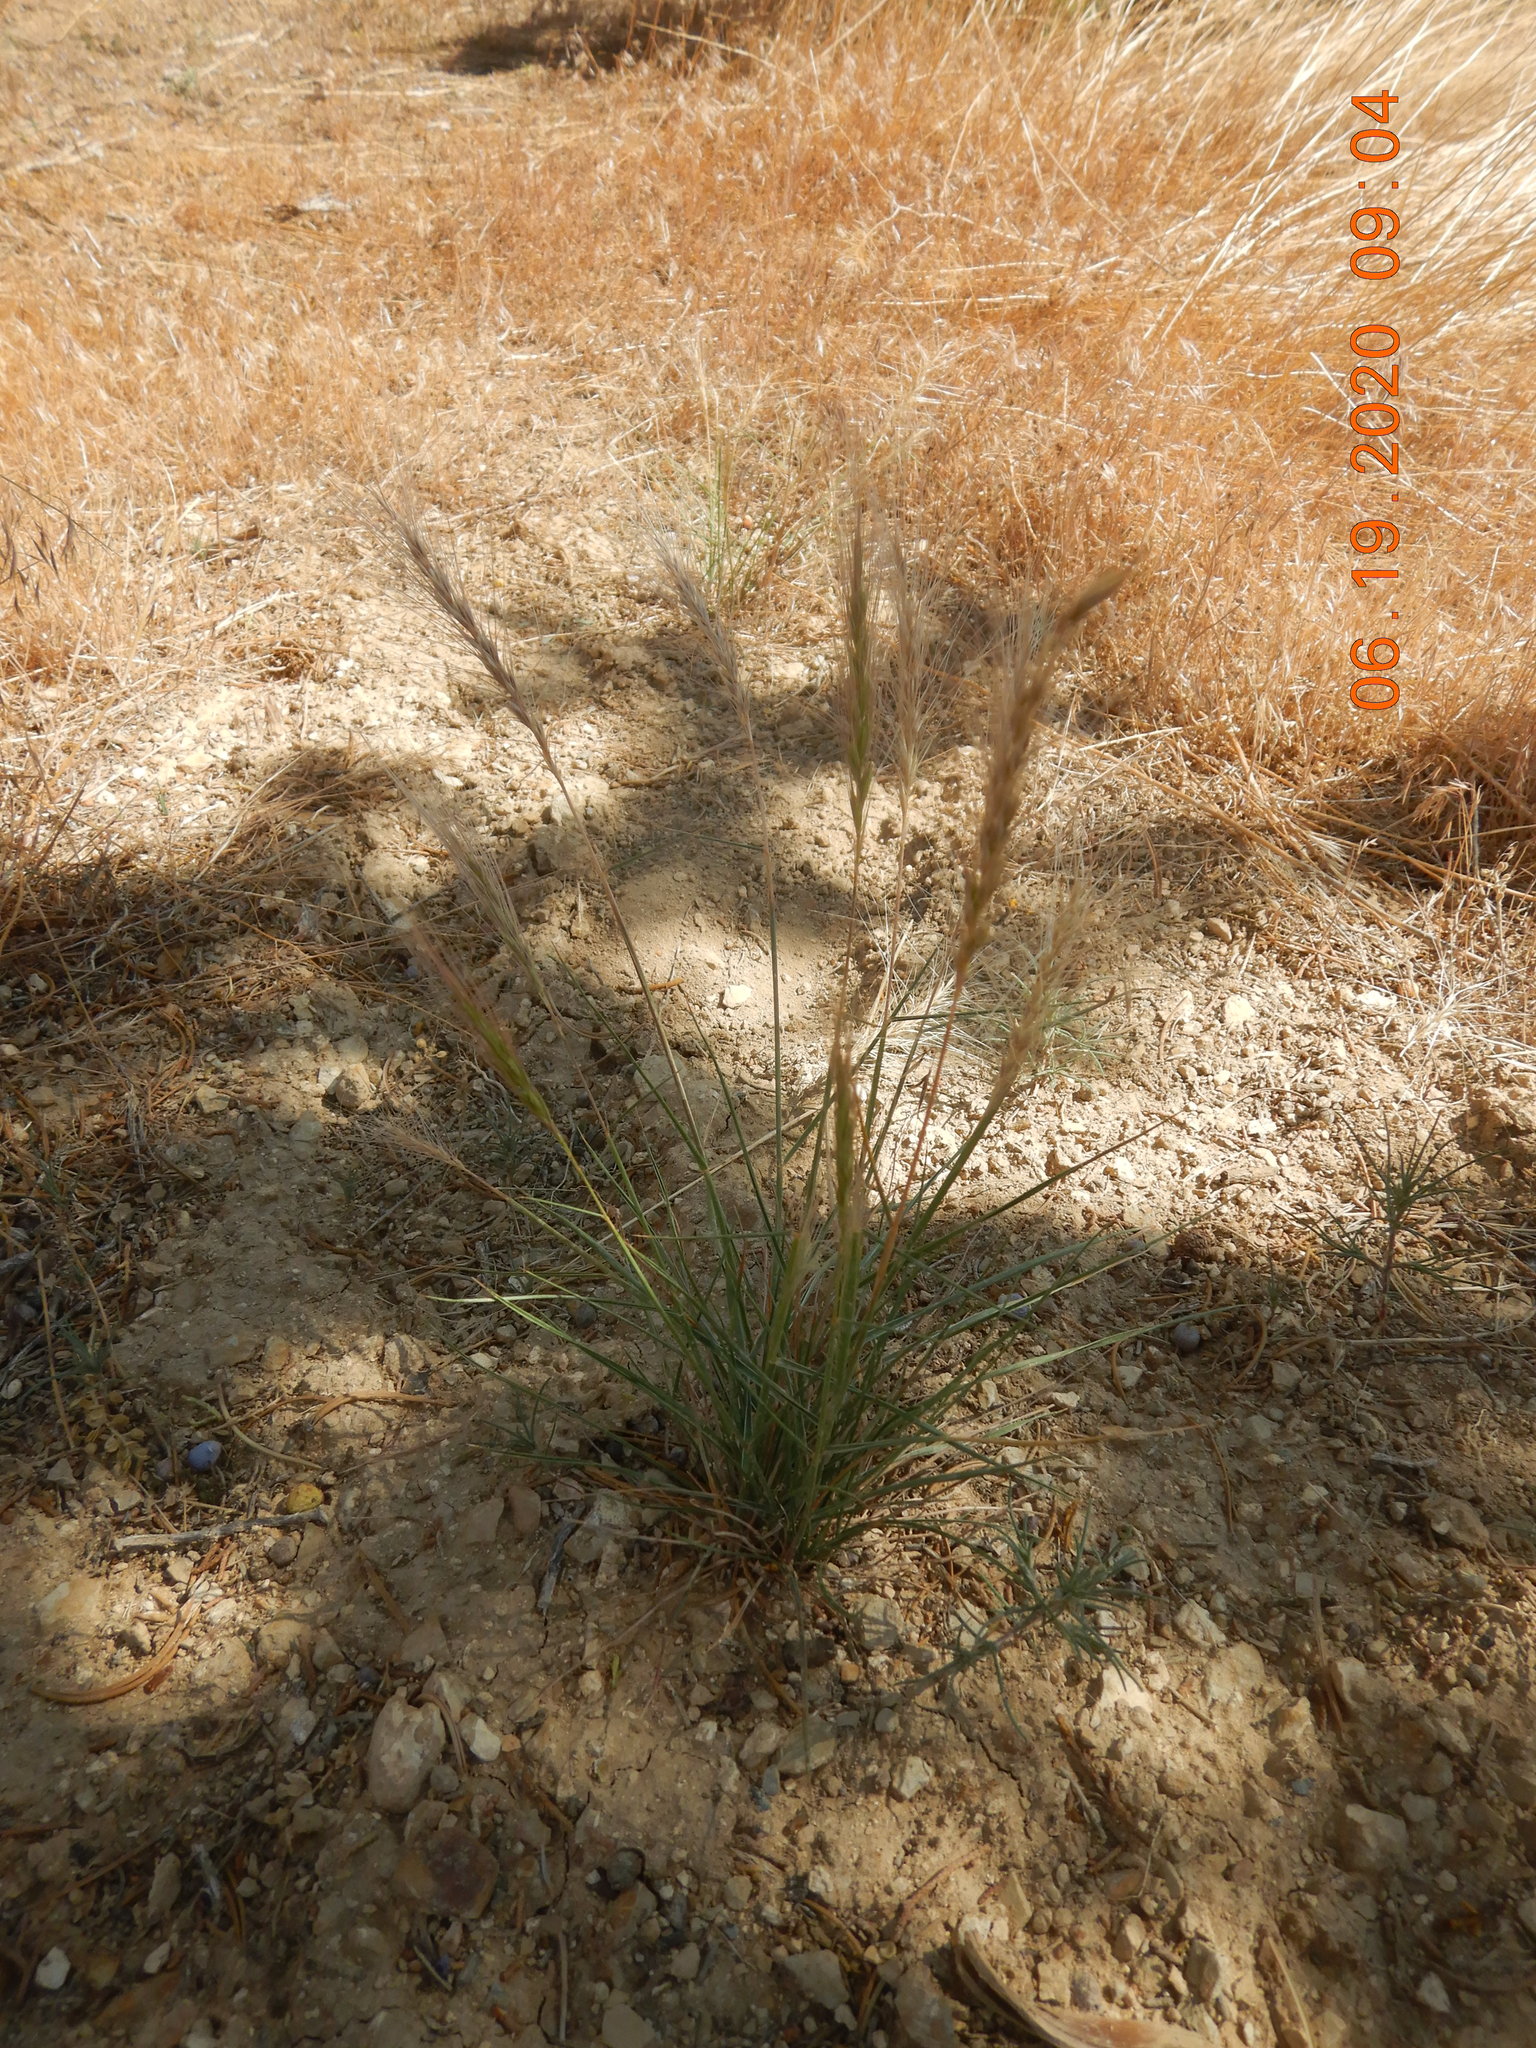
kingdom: Plantae
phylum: Tracheophyta
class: Liliopsida
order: Poales
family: Poaceae
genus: Elymus
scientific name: Elymus elymoides
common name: Bottlebrush squirreltail
